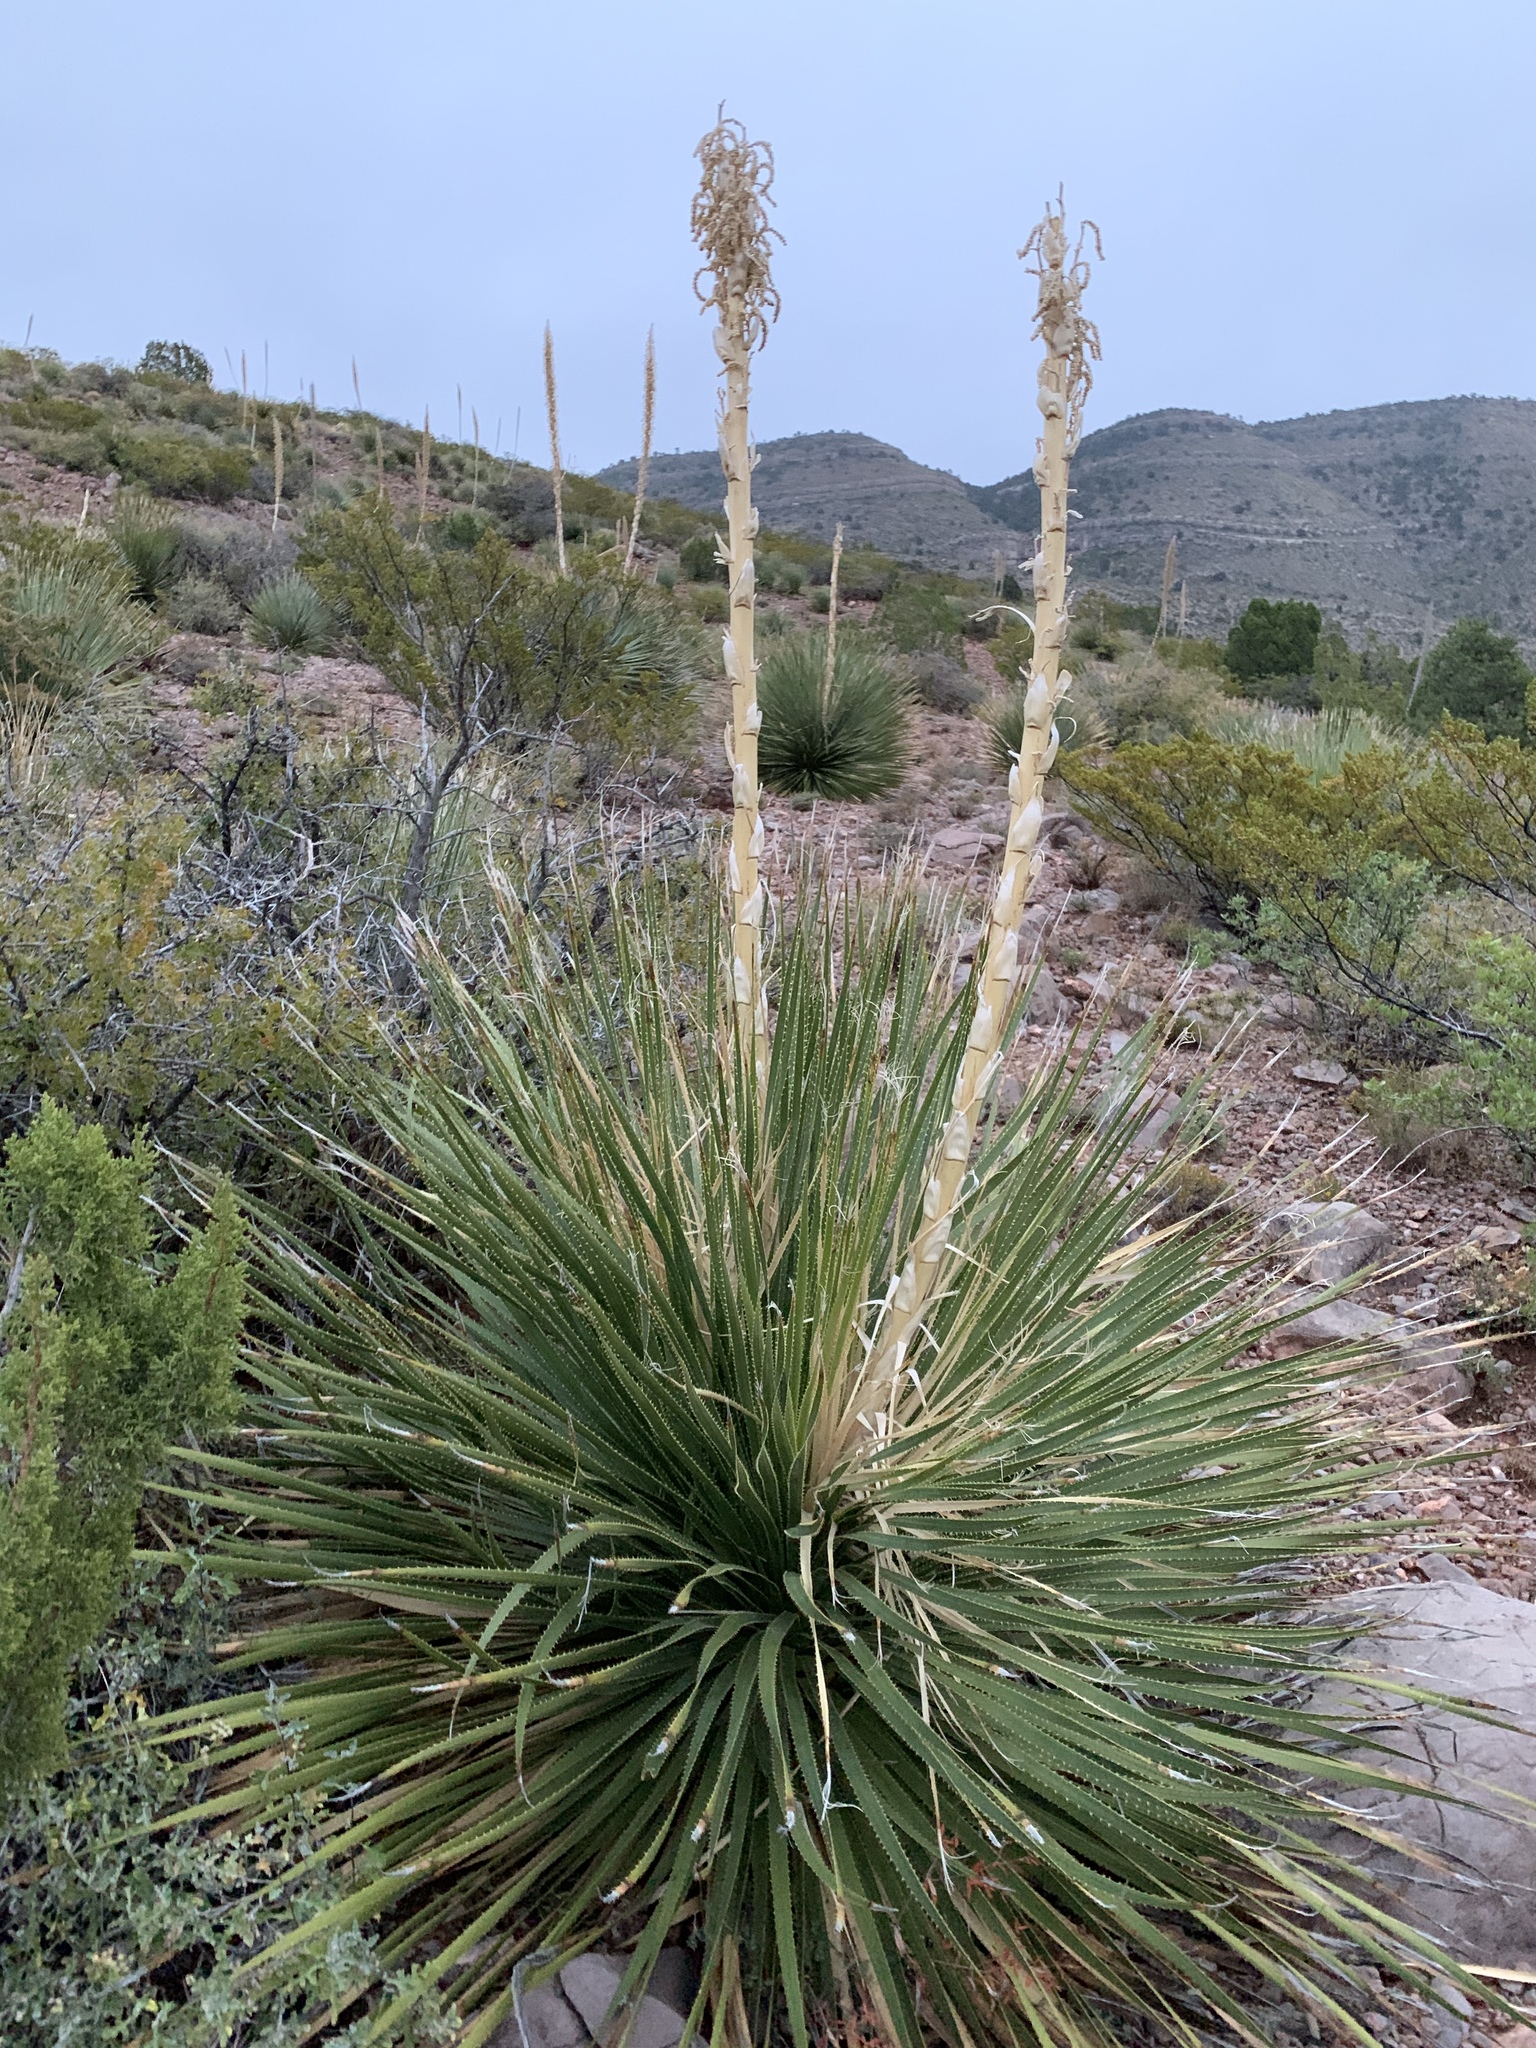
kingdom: Plantae
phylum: Tracheophyta
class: Liliopsida
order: Asparagales
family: Asparagaceae
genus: Dasylirion
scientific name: Dasylirion wheeleri
